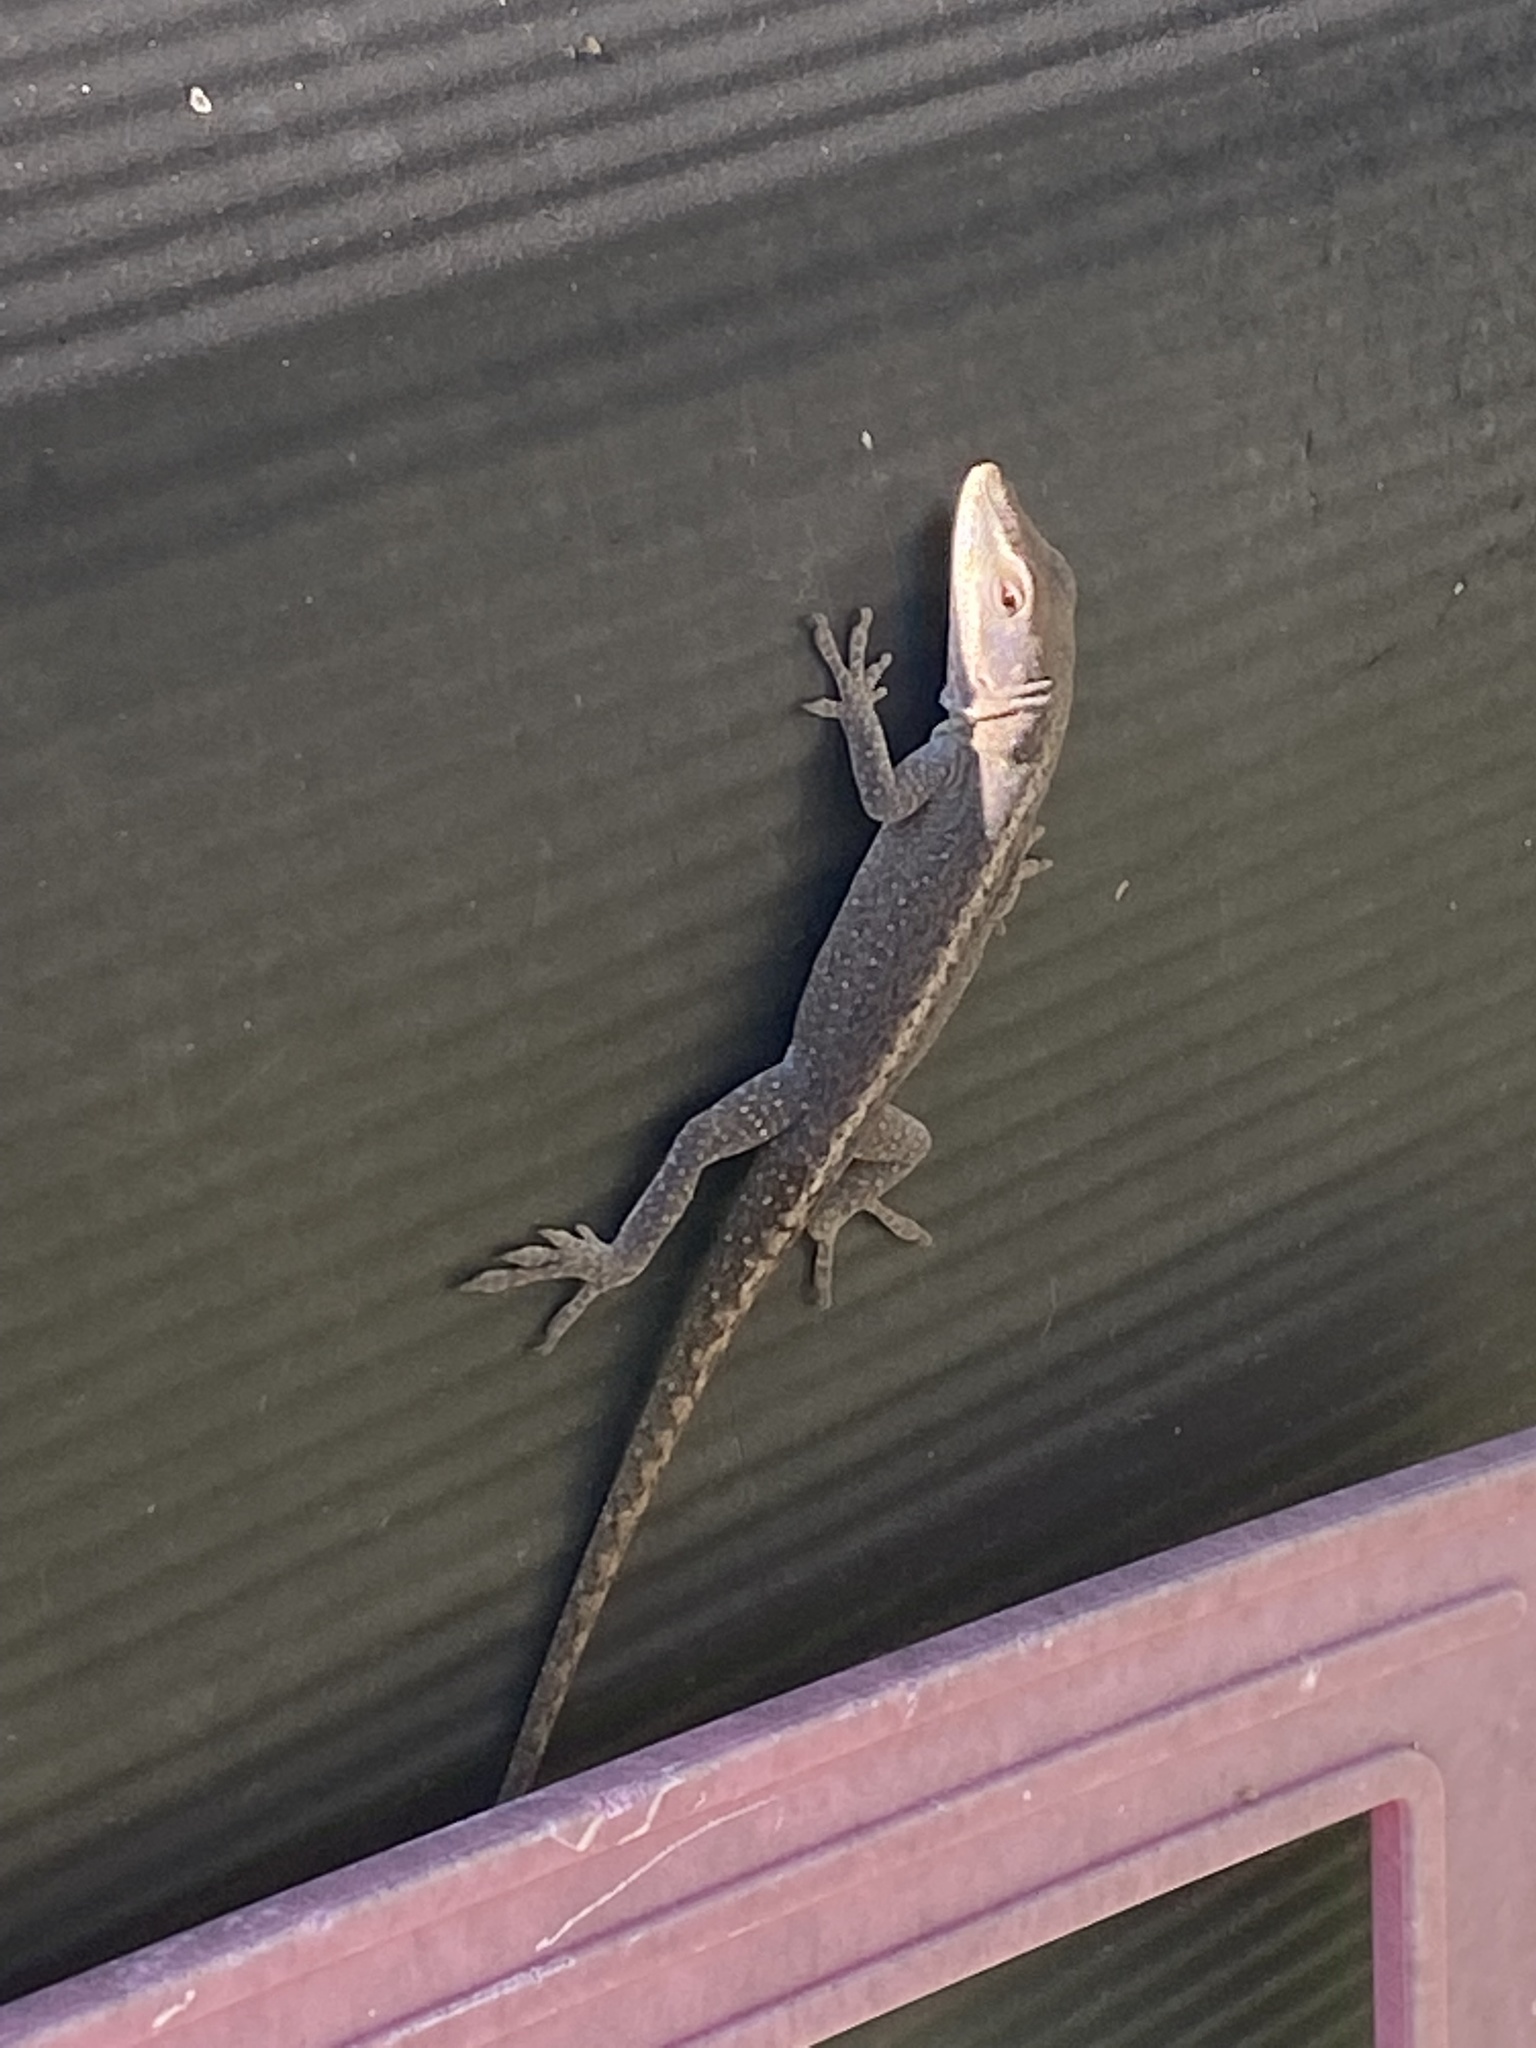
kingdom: Animalia
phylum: Chordata
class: Squamata
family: Dactyloidae
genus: Anolis
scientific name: Anolis carolinensis
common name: Green anole
